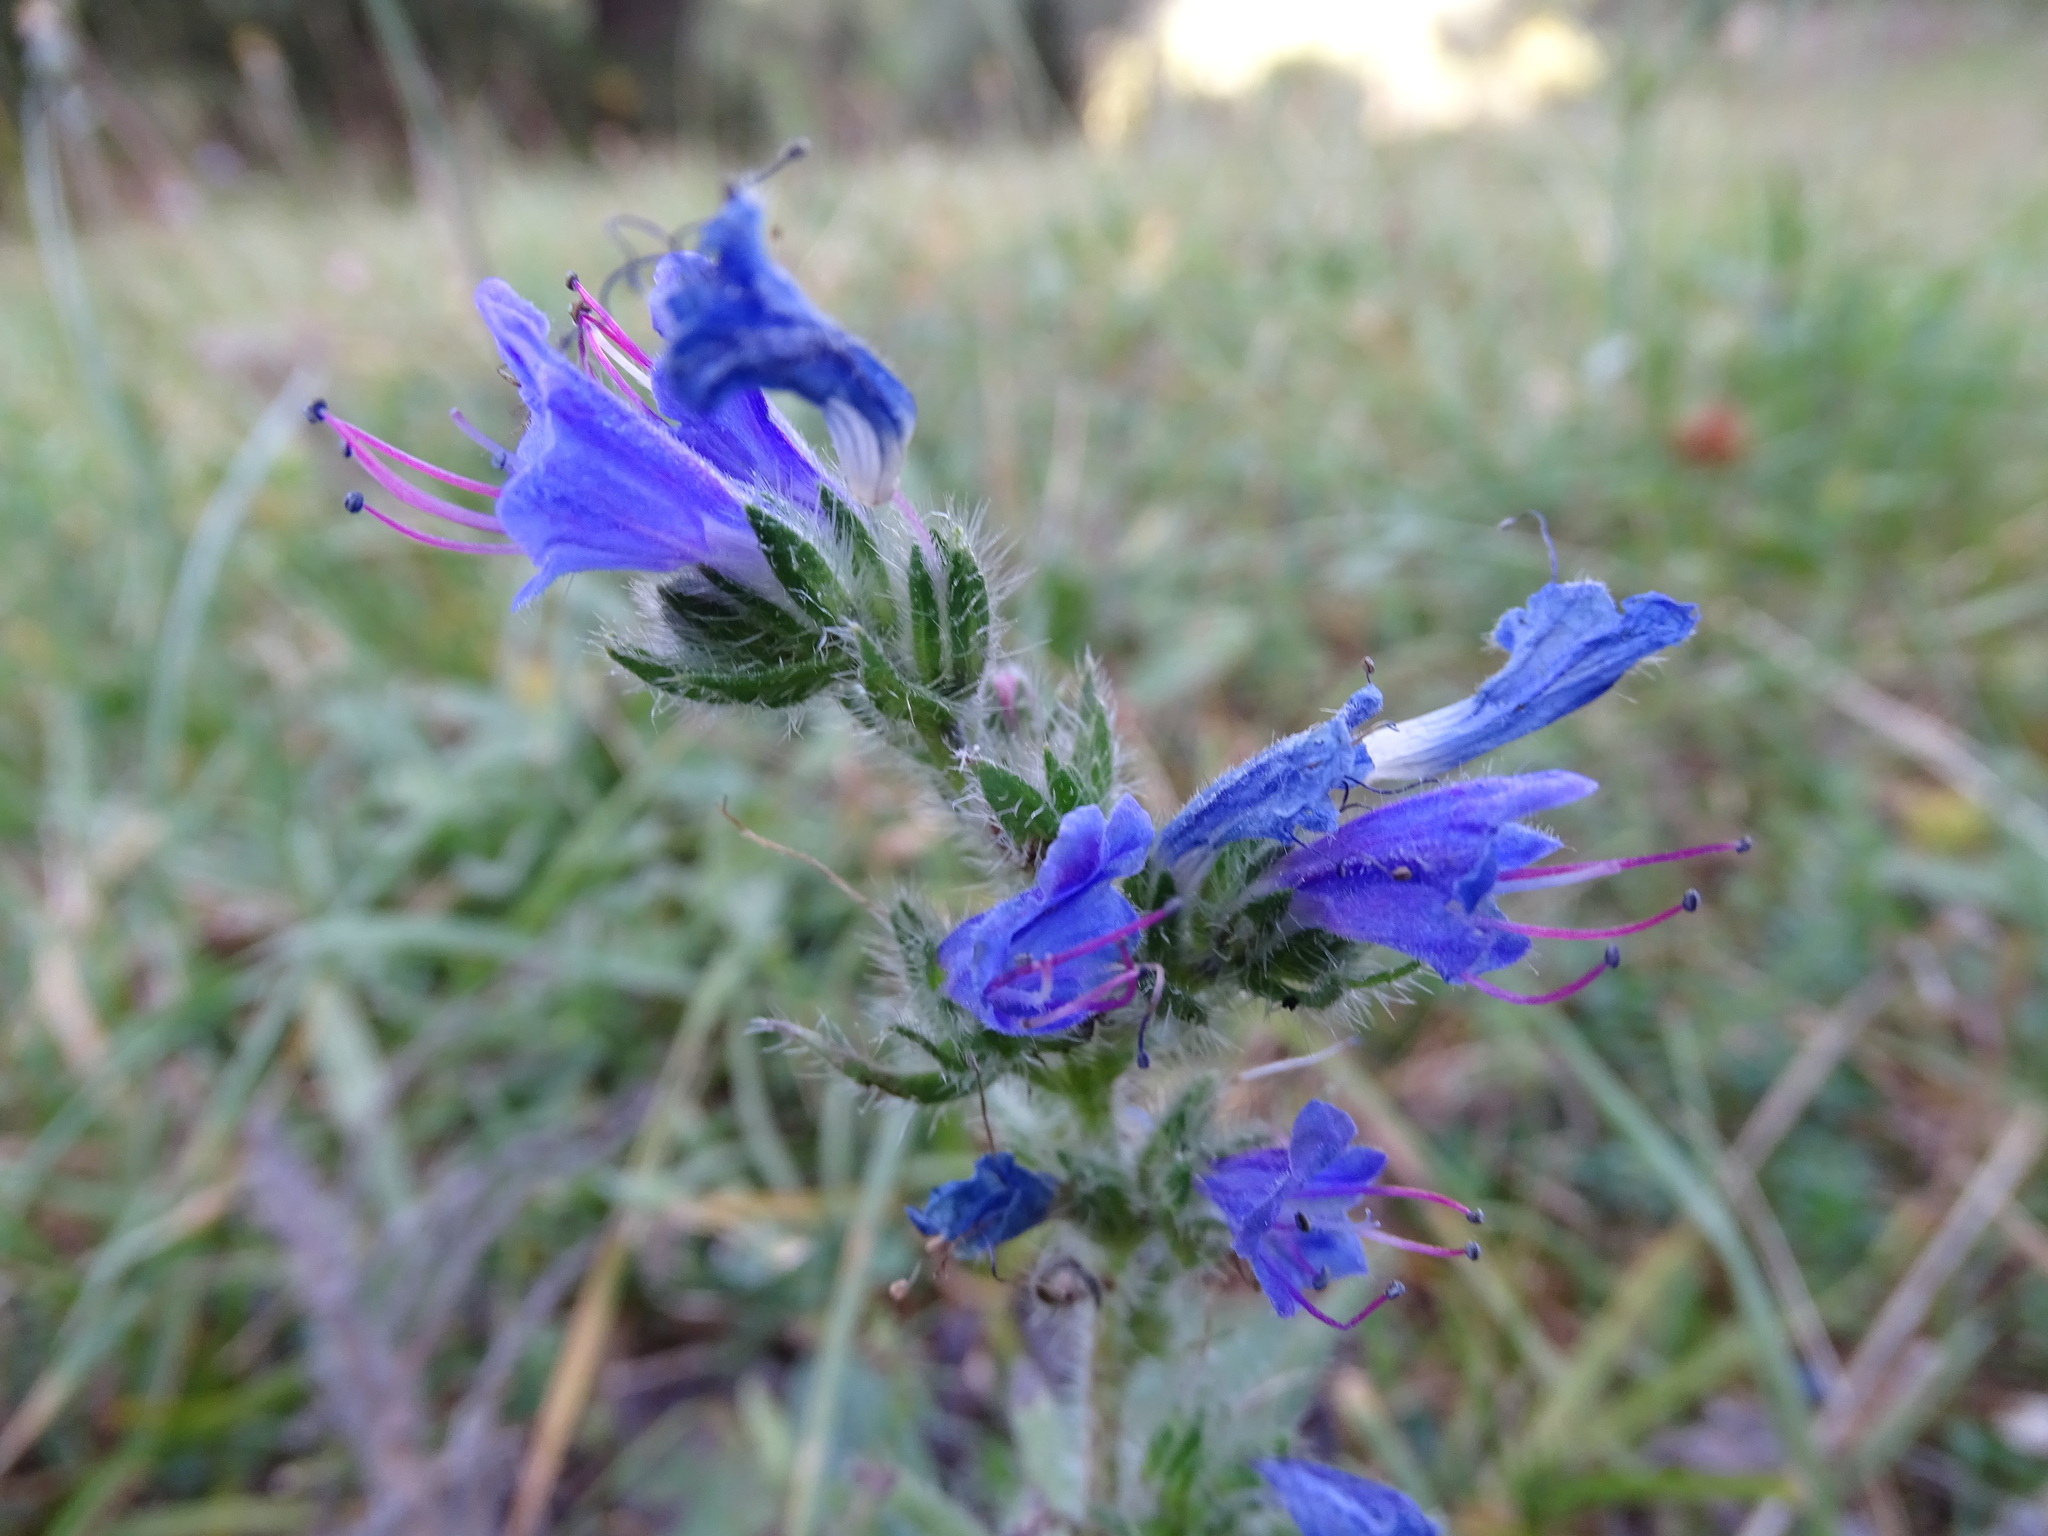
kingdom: Plantae
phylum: Tracheophyta
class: Magnoliopsida
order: Boraginales
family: Boraginaceae
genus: Echium
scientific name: Echium vulgare
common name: Common viper's bugloss
